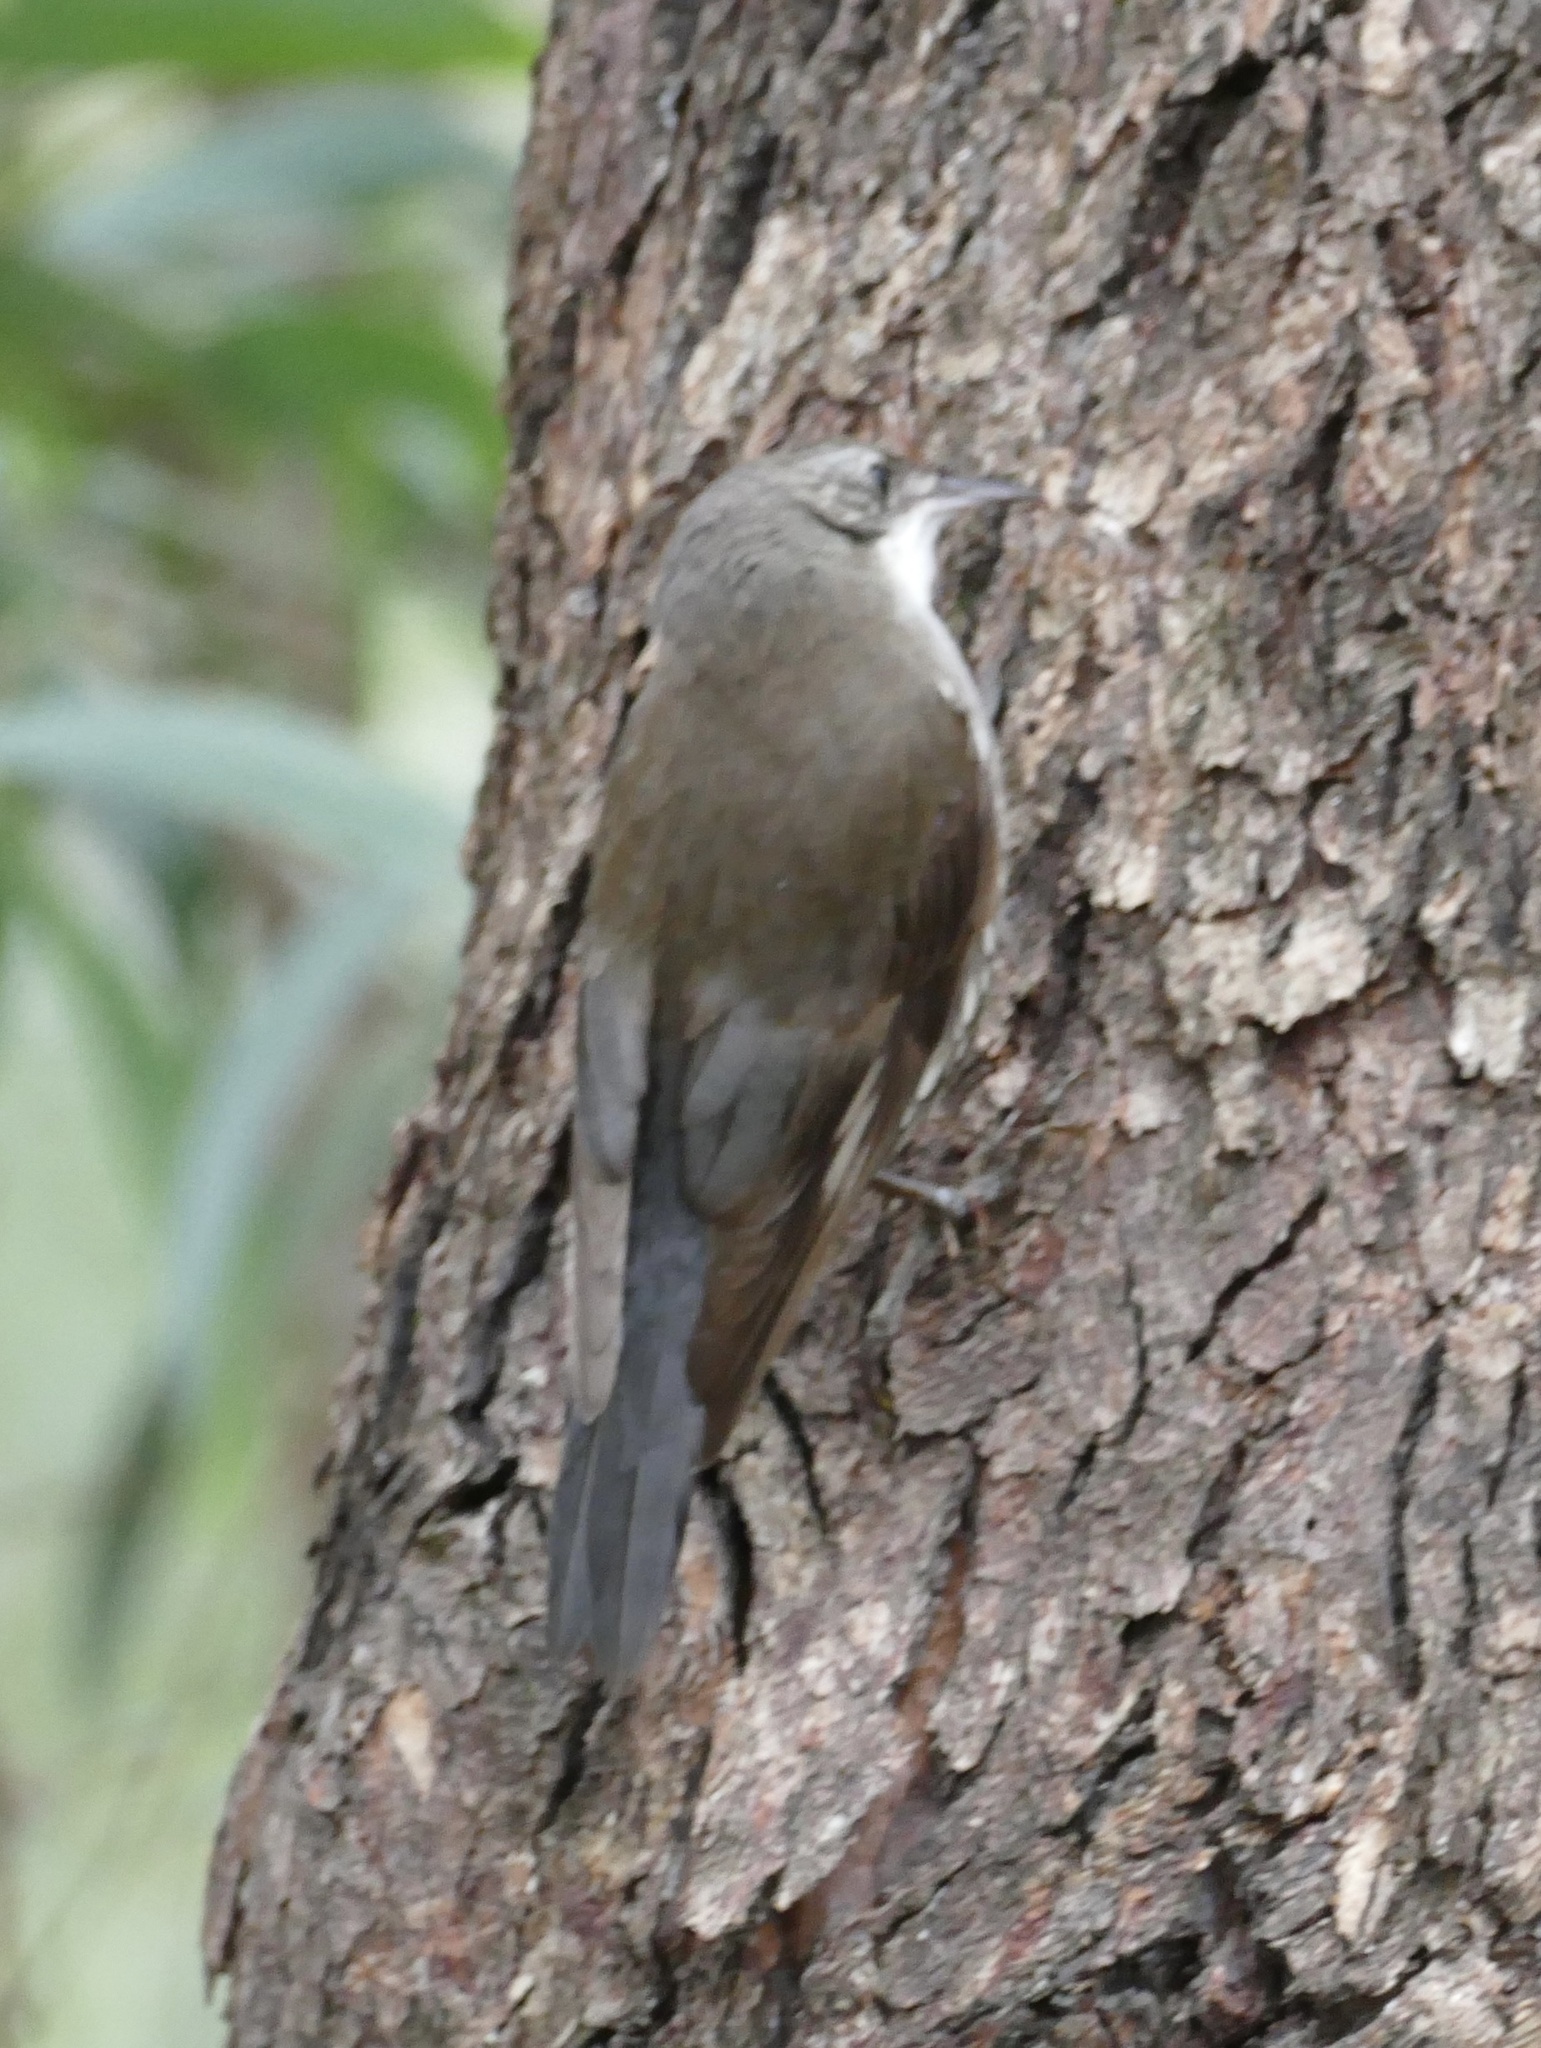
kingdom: Animalia
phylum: Chordata
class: Aves
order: Passeriformes
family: Climacteridae
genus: Cormobates
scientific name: Cormobates leucophaea
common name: White-throated treecreeper
